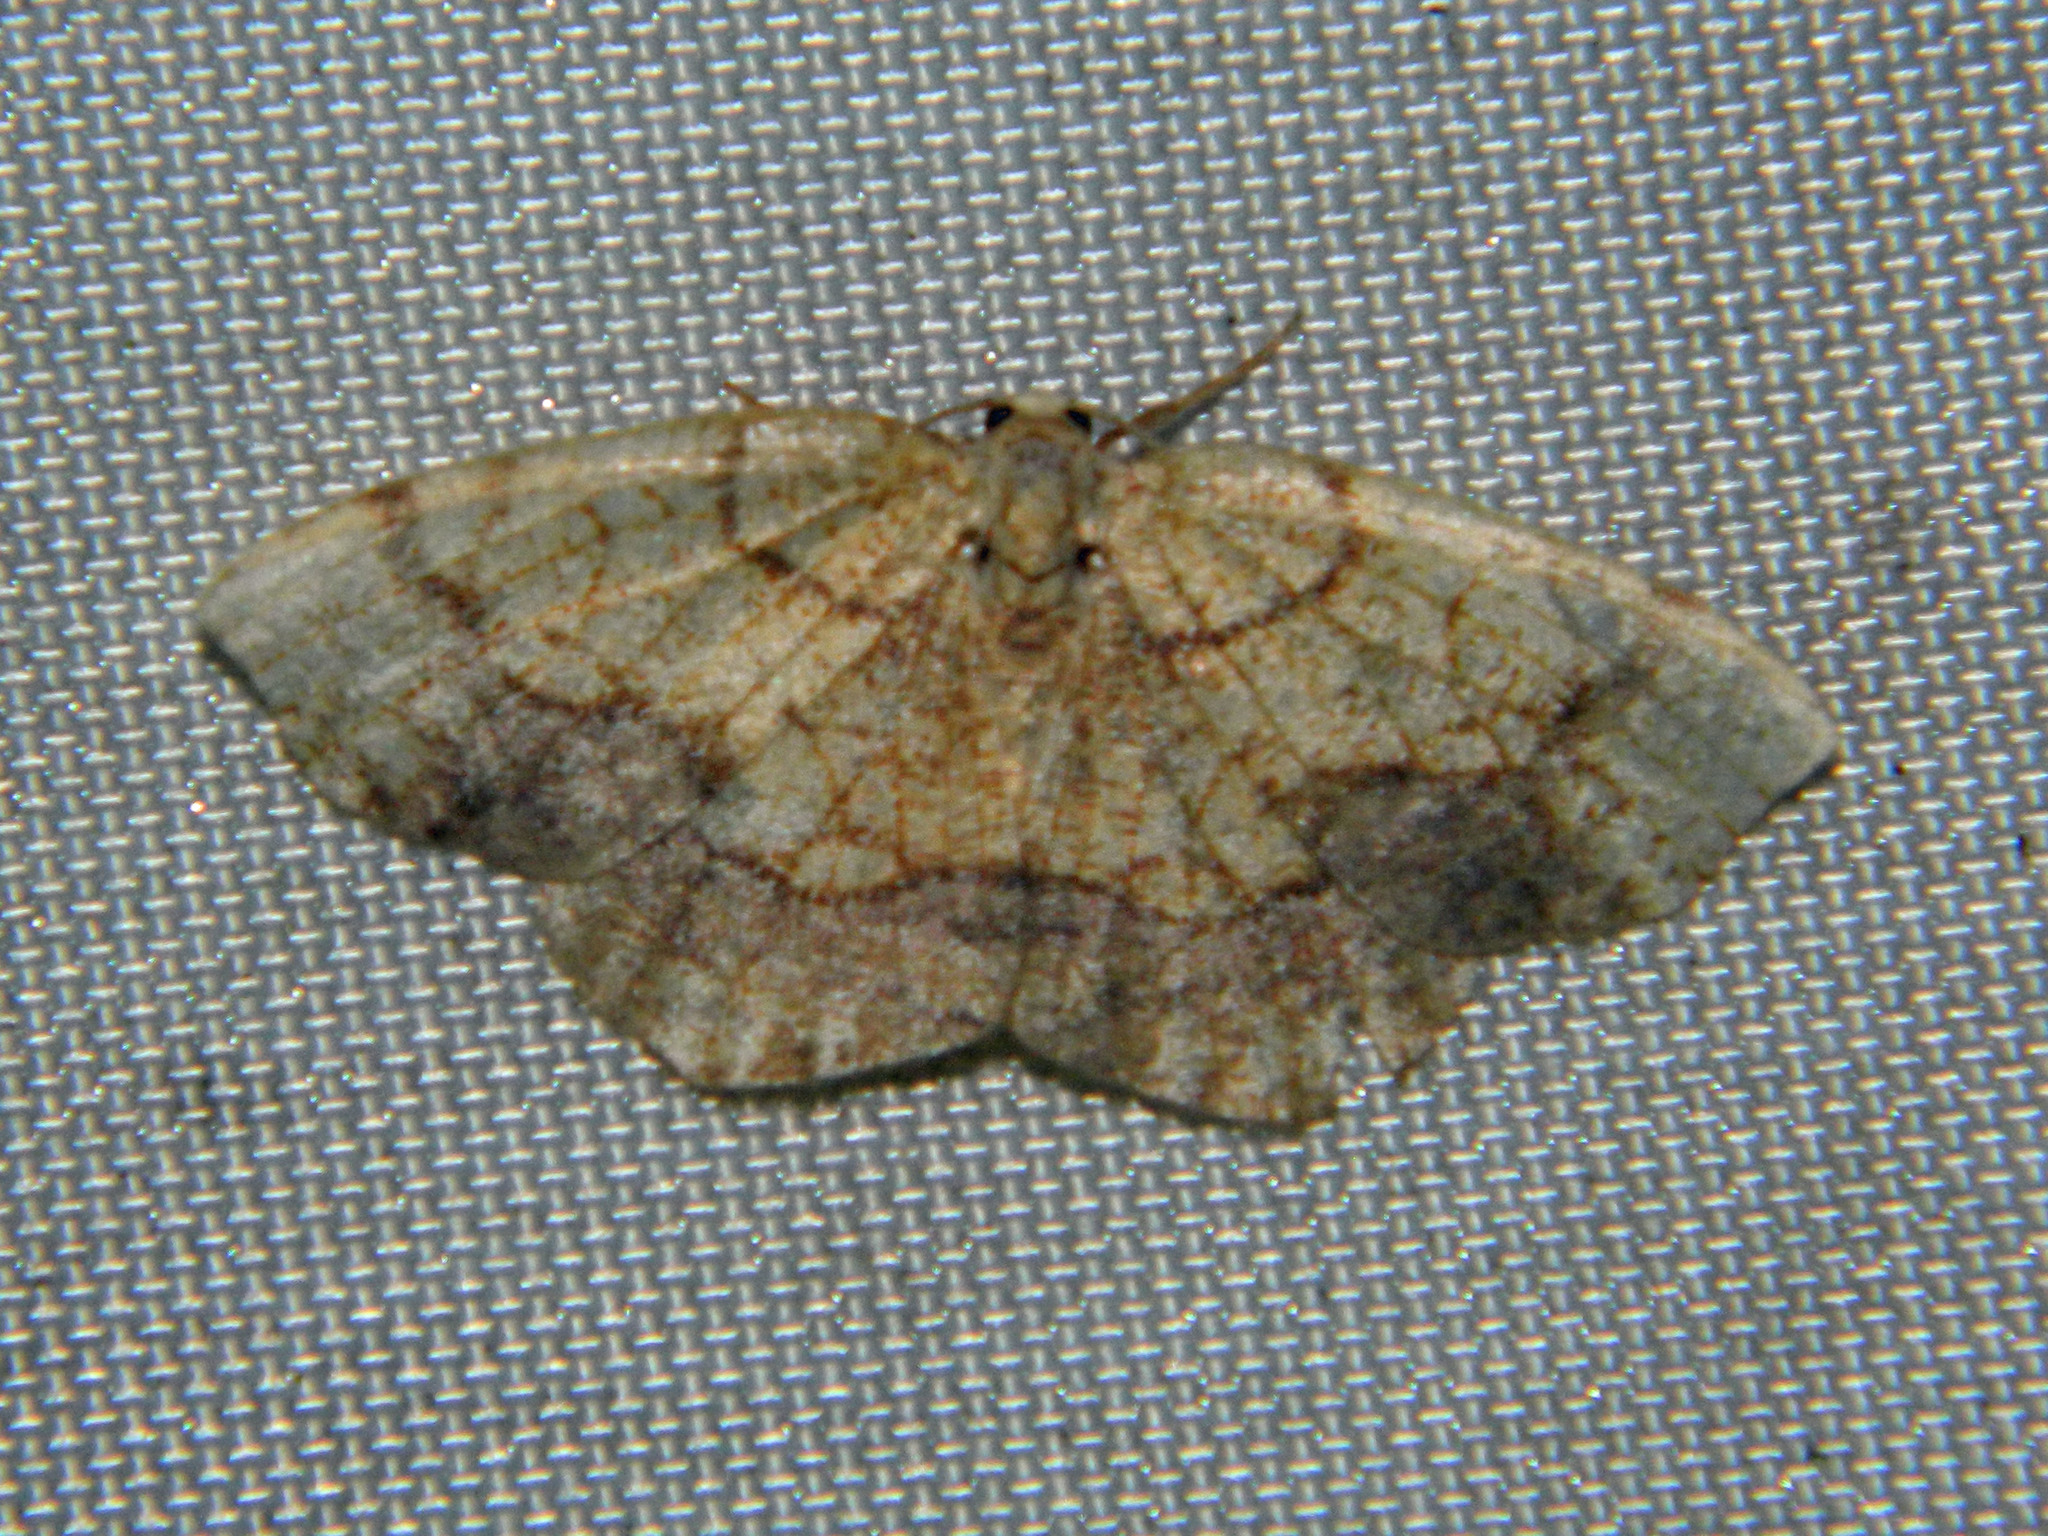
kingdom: Animalia
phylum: Arthropoda
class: Insecta
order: Lepidoptera
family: Geometridae
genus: Nematocampa
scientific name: Nematocampa resistaria
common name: Horned spanworm moth
